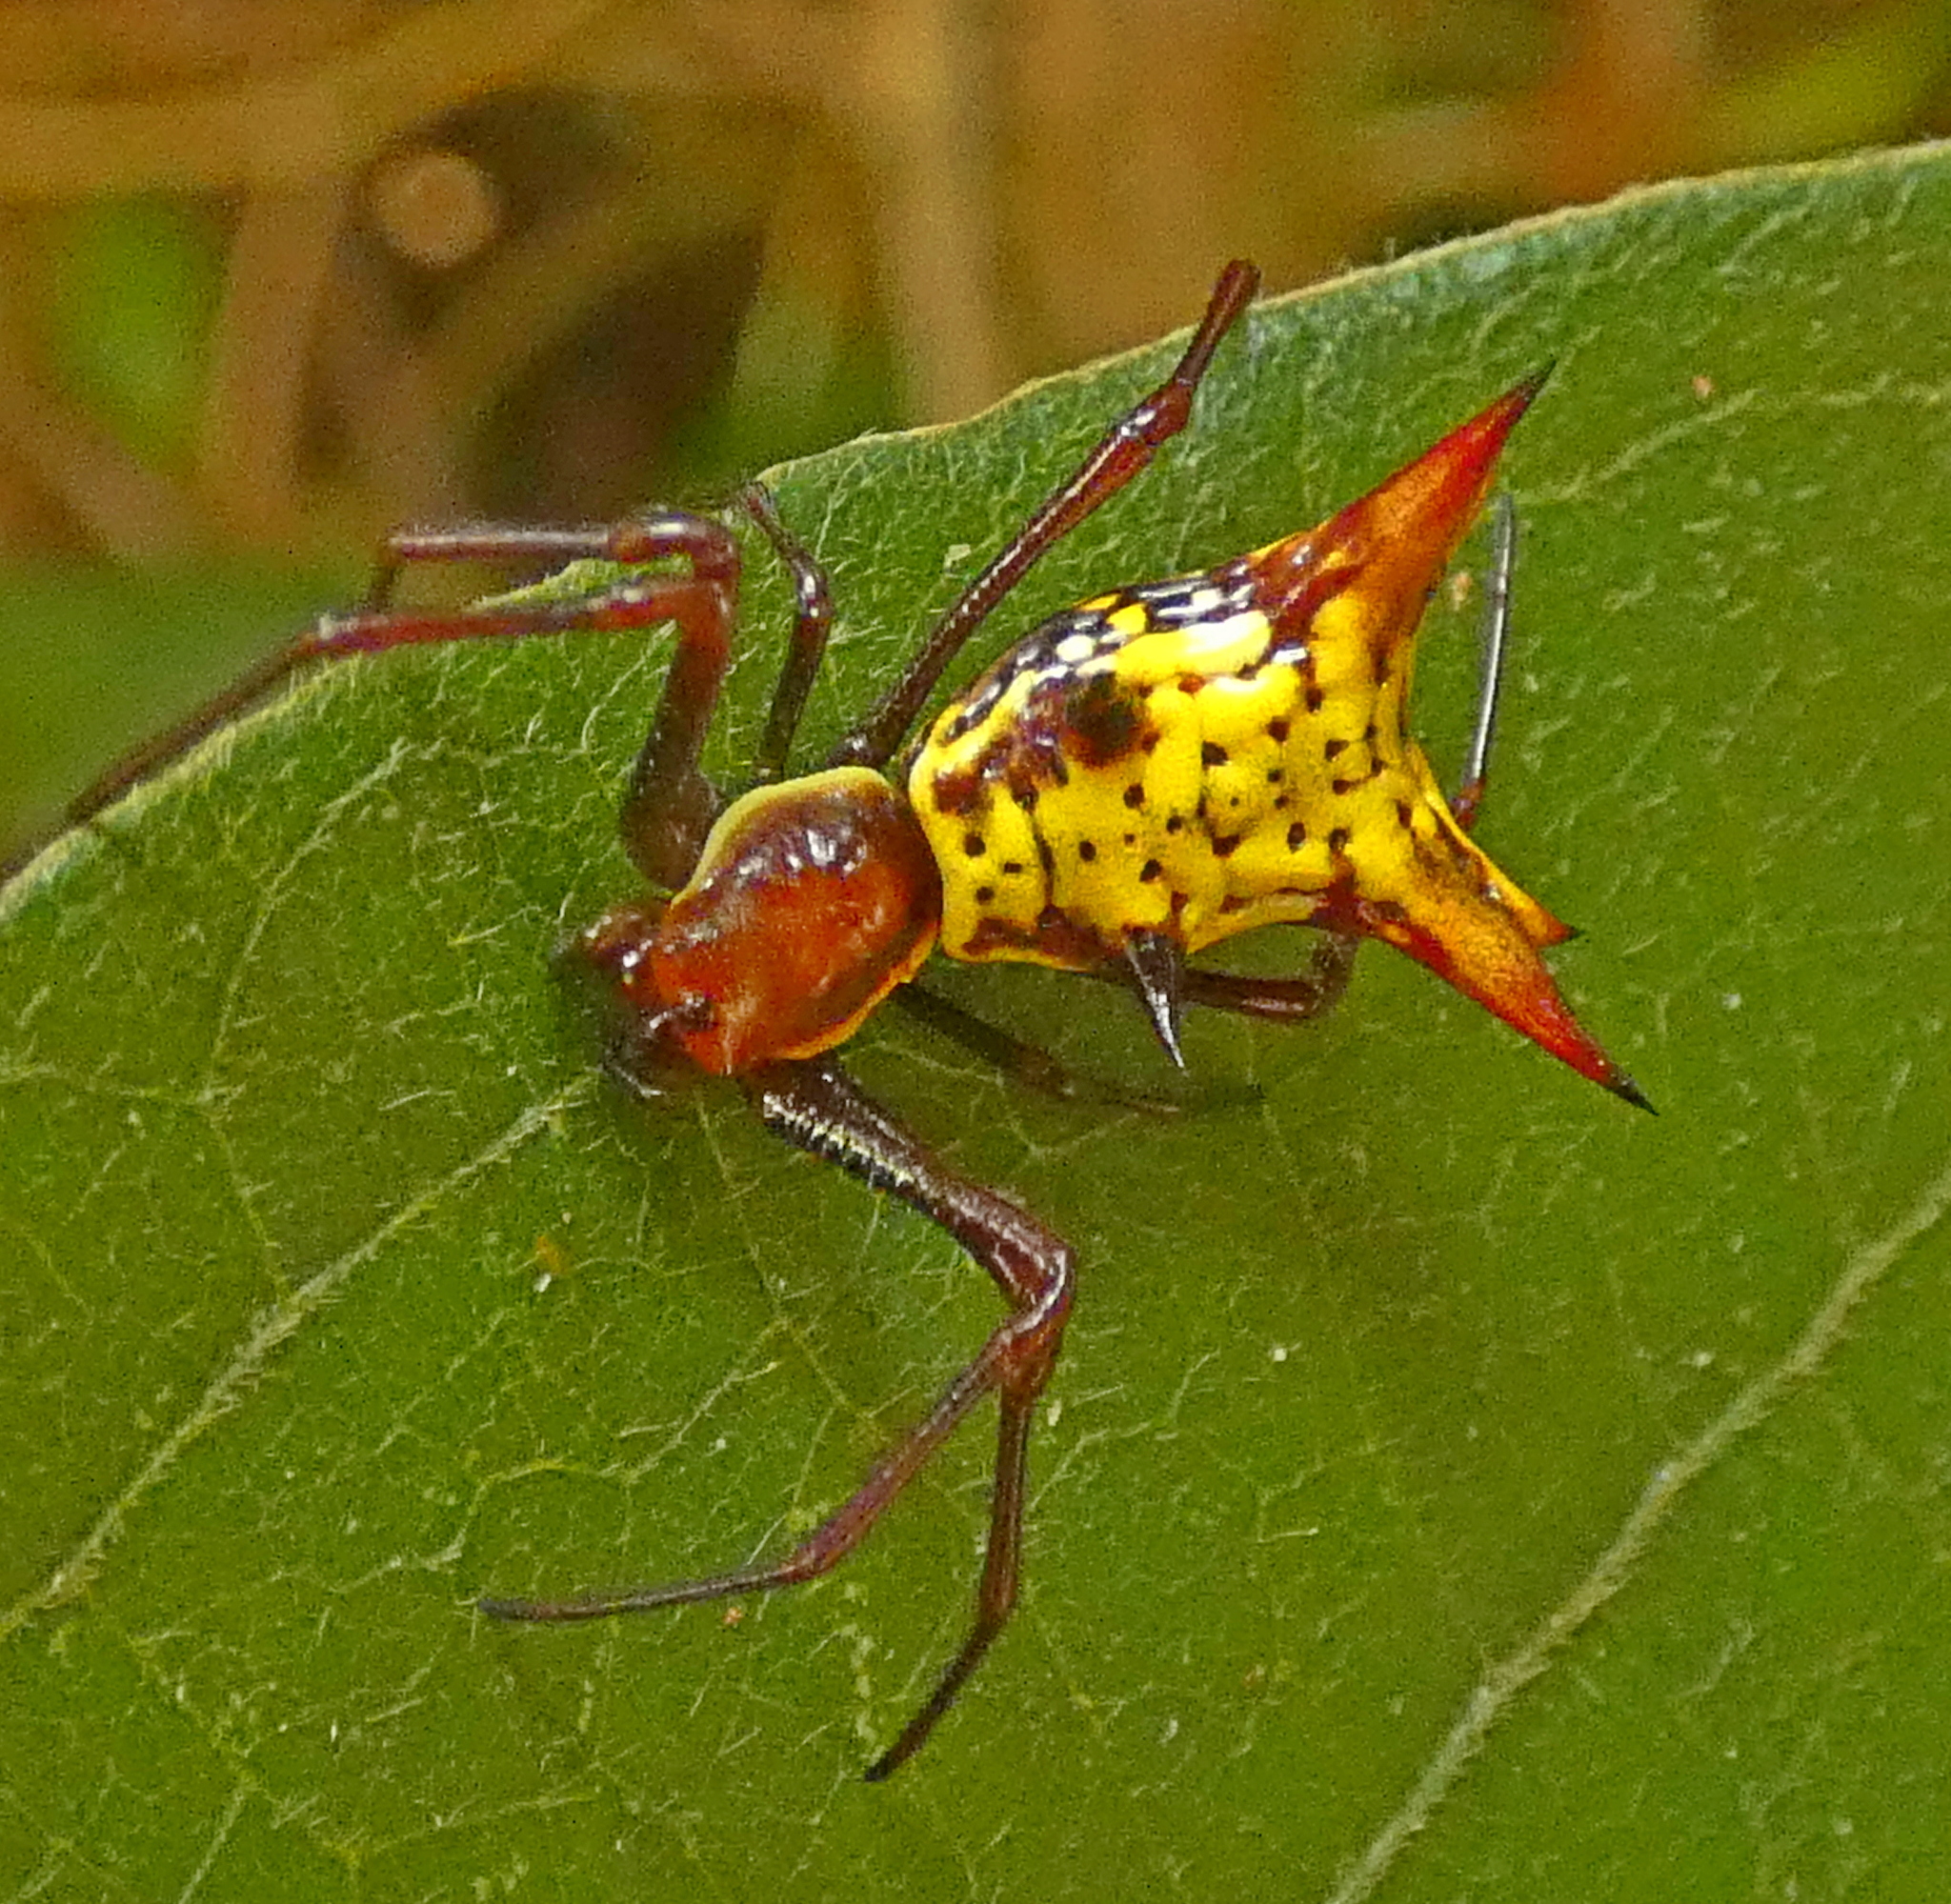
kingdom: Animalia
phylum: Arthropoda
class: Arachnida
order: Araneae
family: Araneidae
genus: Micrathena
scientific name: Micrathena fissispina
